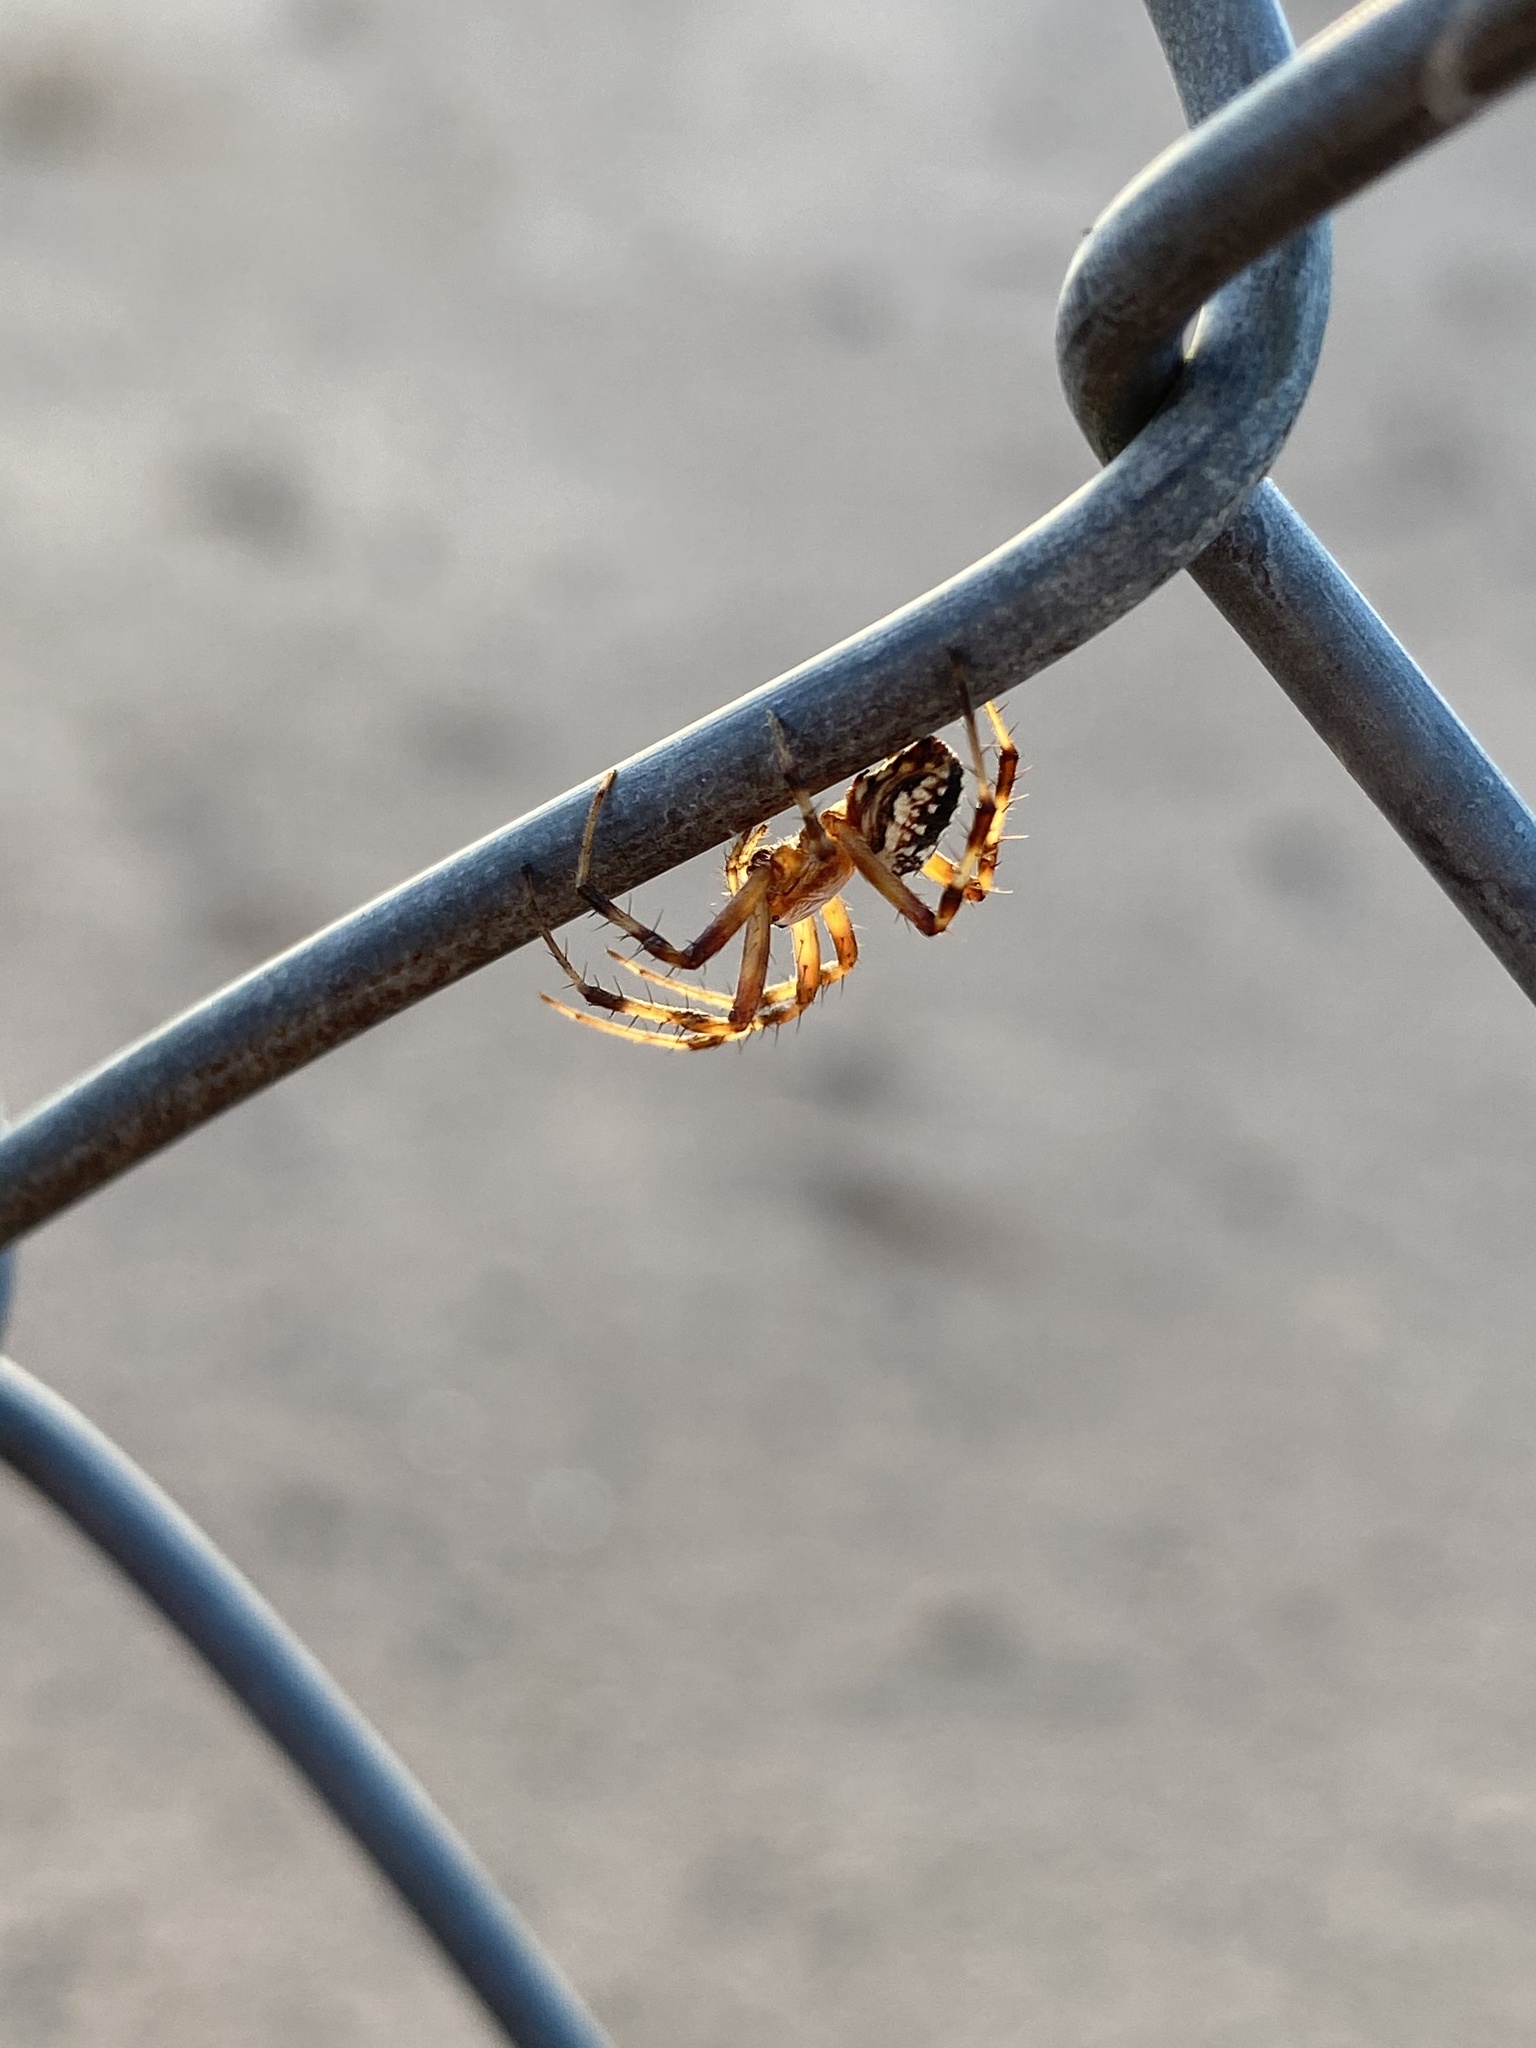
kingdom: Animalia
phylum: Arthropoda
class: Arachnida
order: Araneae
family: Araneidae
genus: Neoscona
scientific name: Neoscona oaxacensis
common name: Orb weavers
